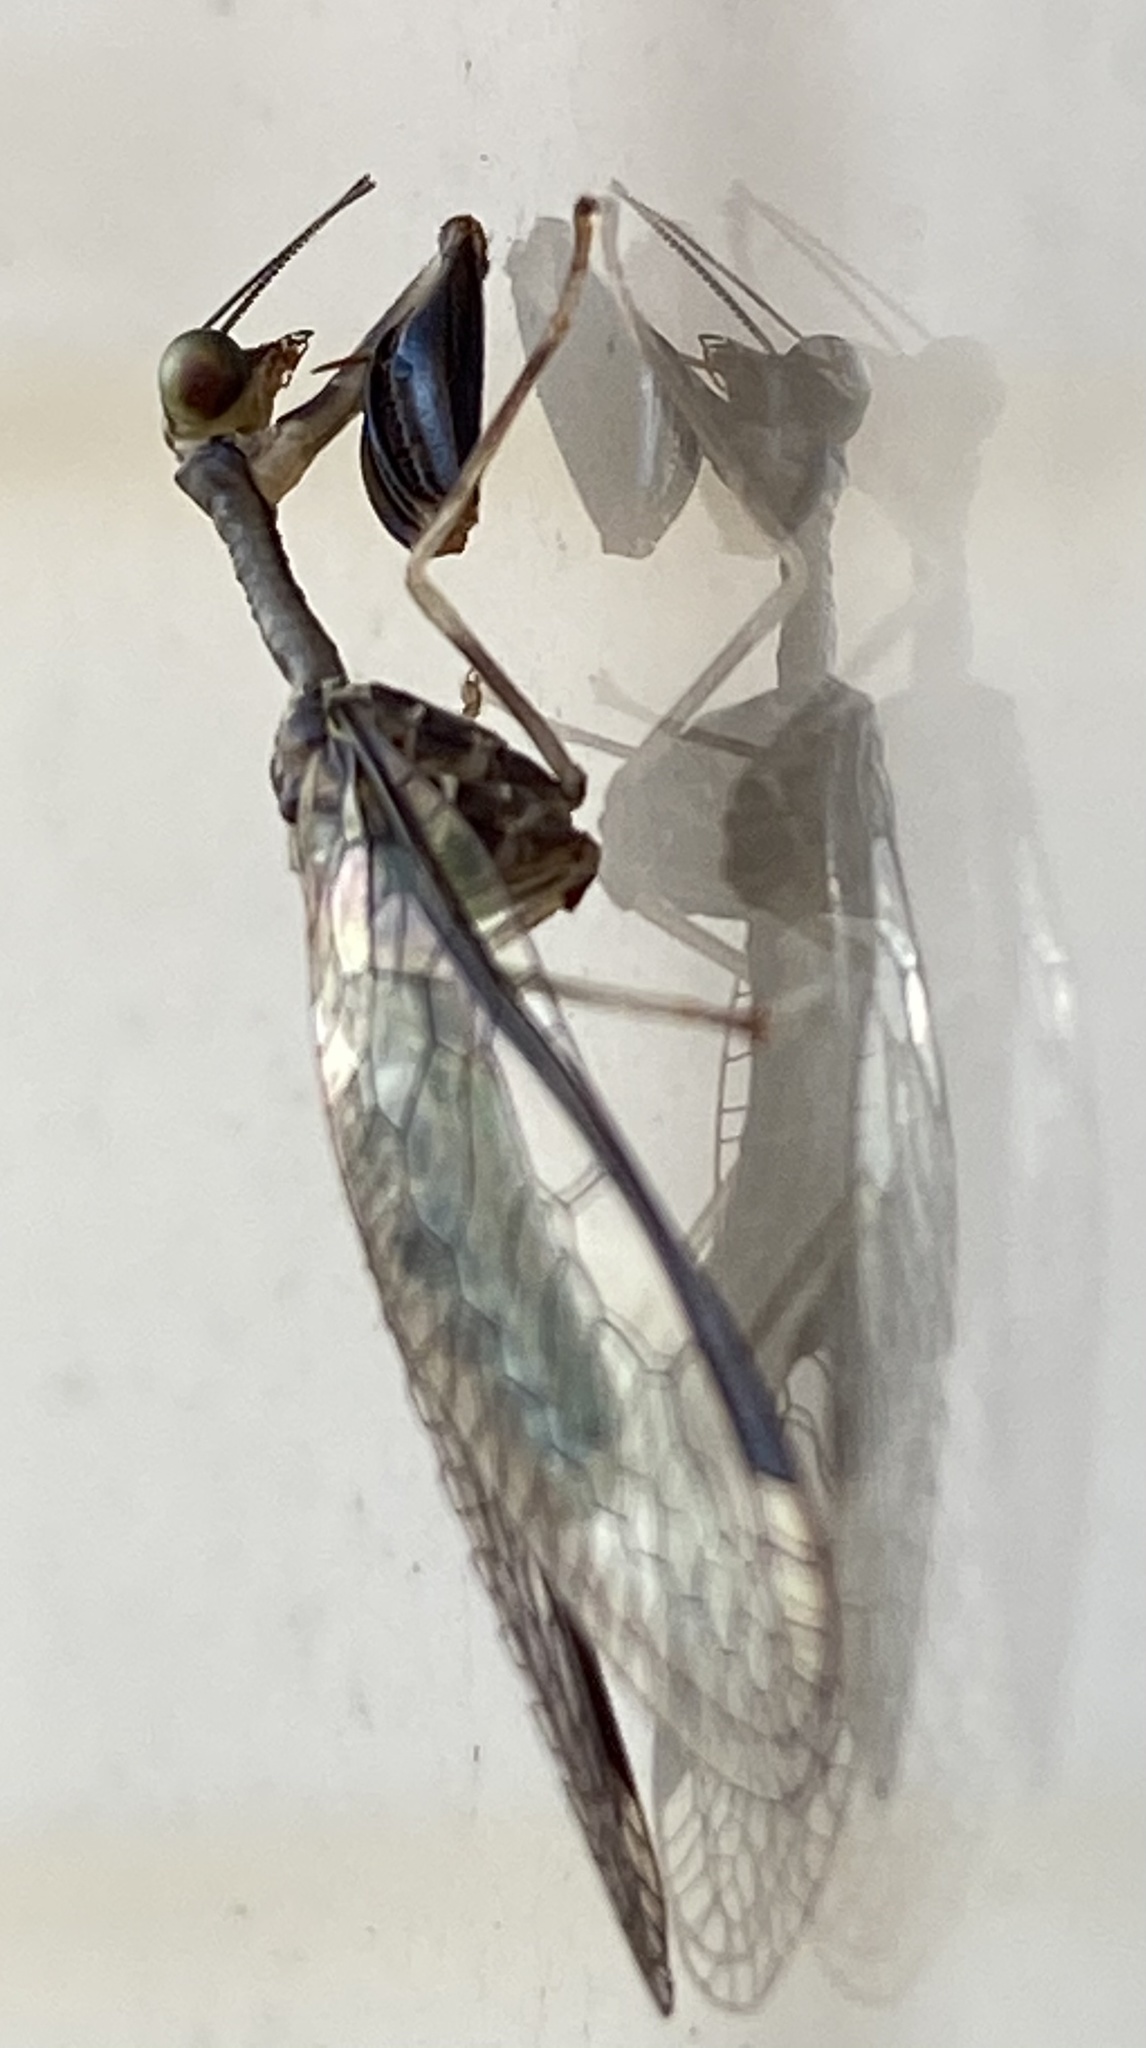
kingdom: Animalia
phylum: Arthropoda
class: Insecta
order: Neuroptera
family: Mantispidae
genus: Dicromantispa
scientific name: Dicromantispa sayi
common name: Say's mantidfly
